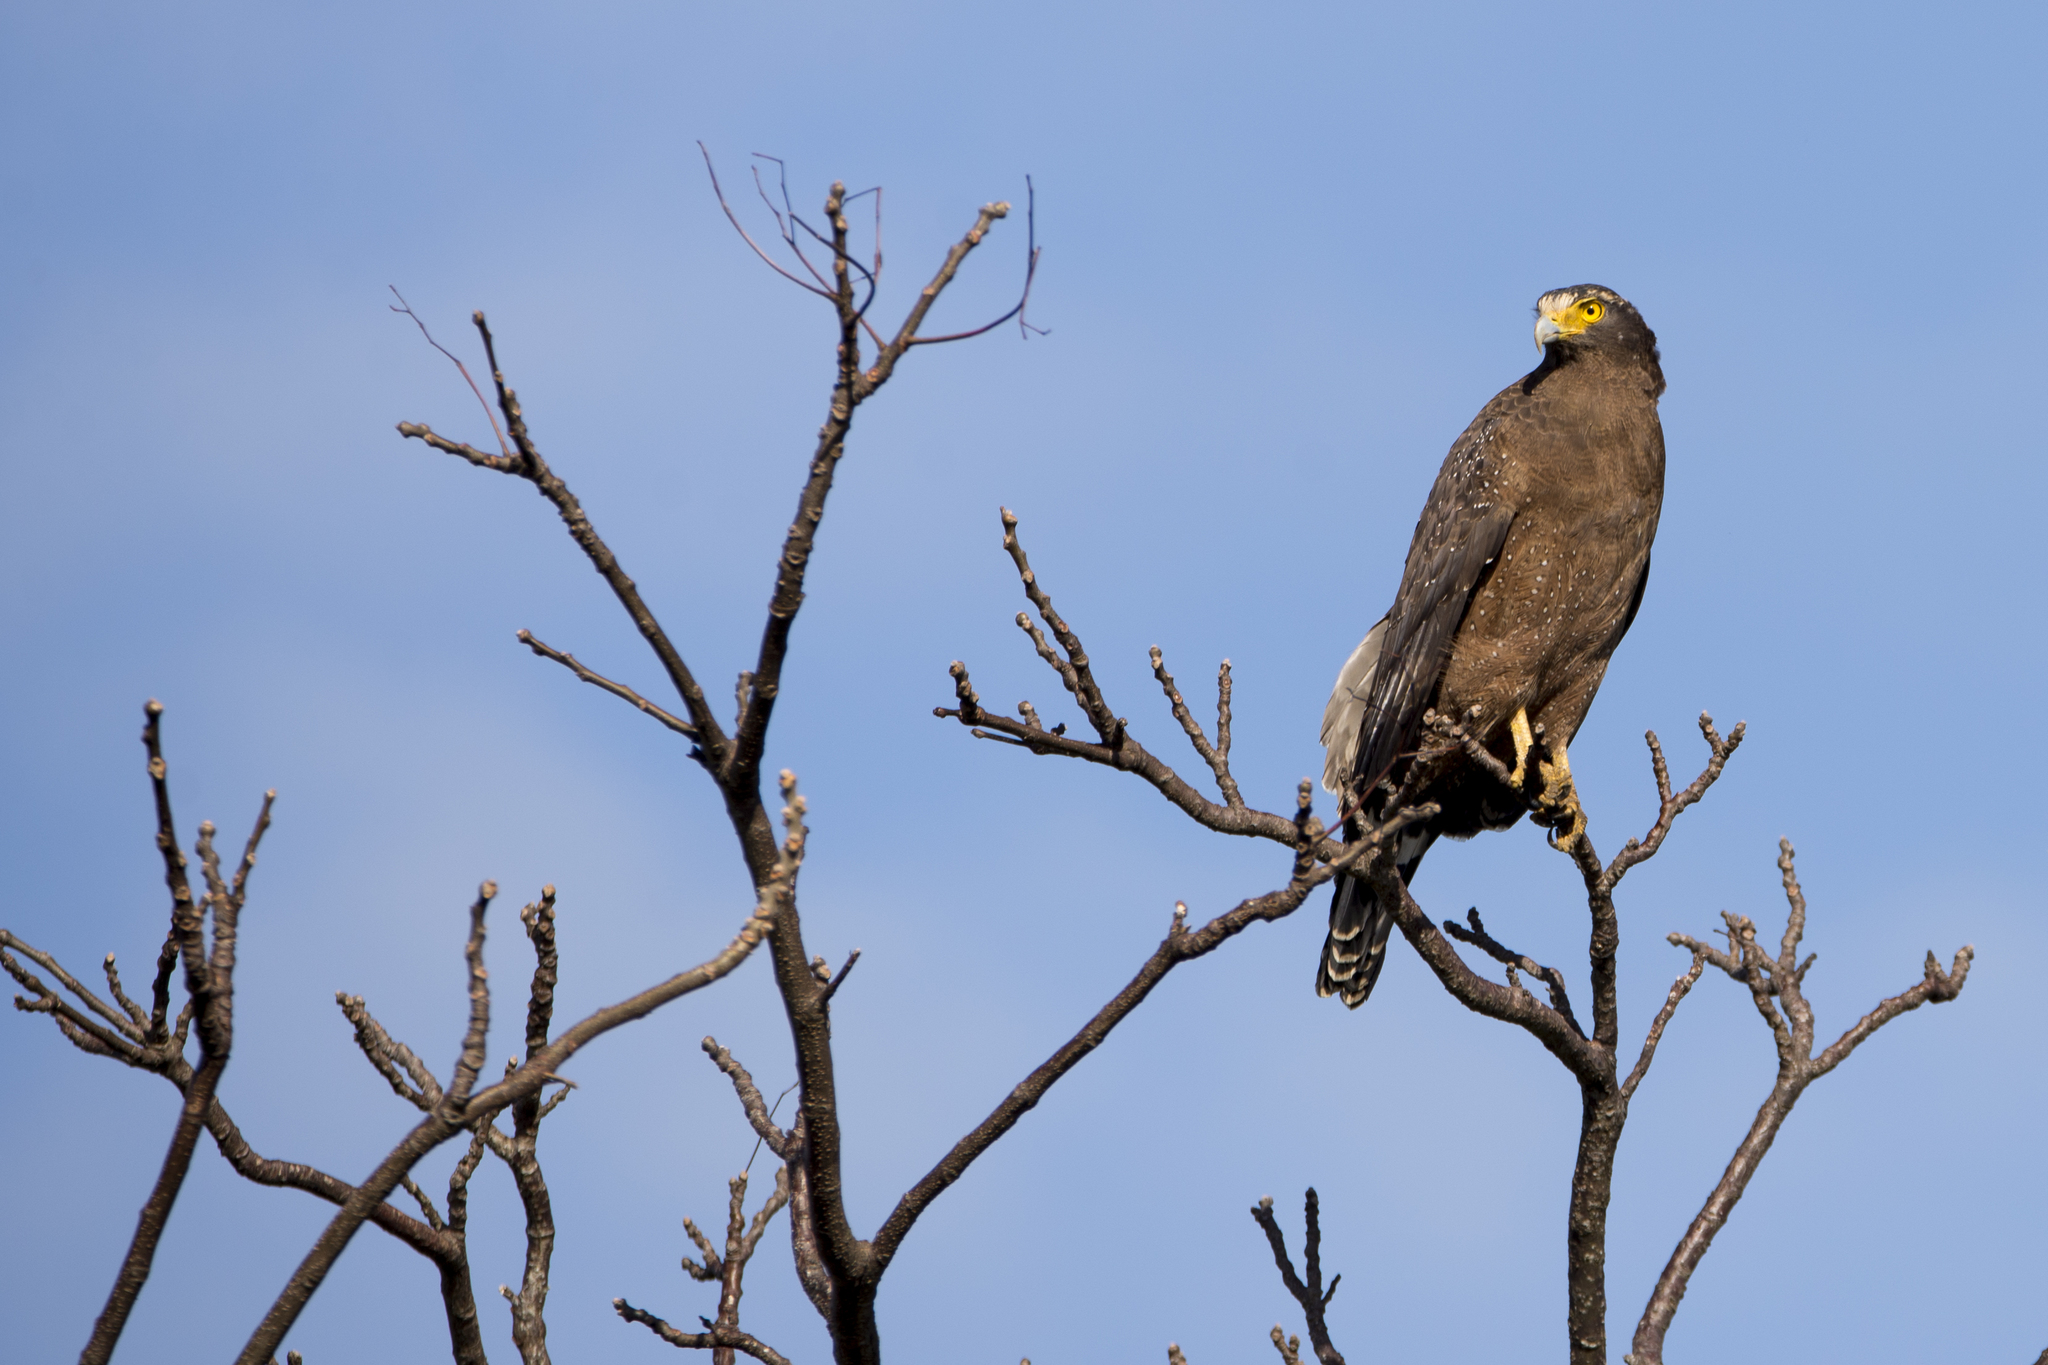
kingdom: Animalia
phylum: Chordata
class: Aves
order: Accipitriformes
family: Accipitridae
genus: Spilornis
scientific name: Spilornis cheela
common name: Crested serpent eagle
